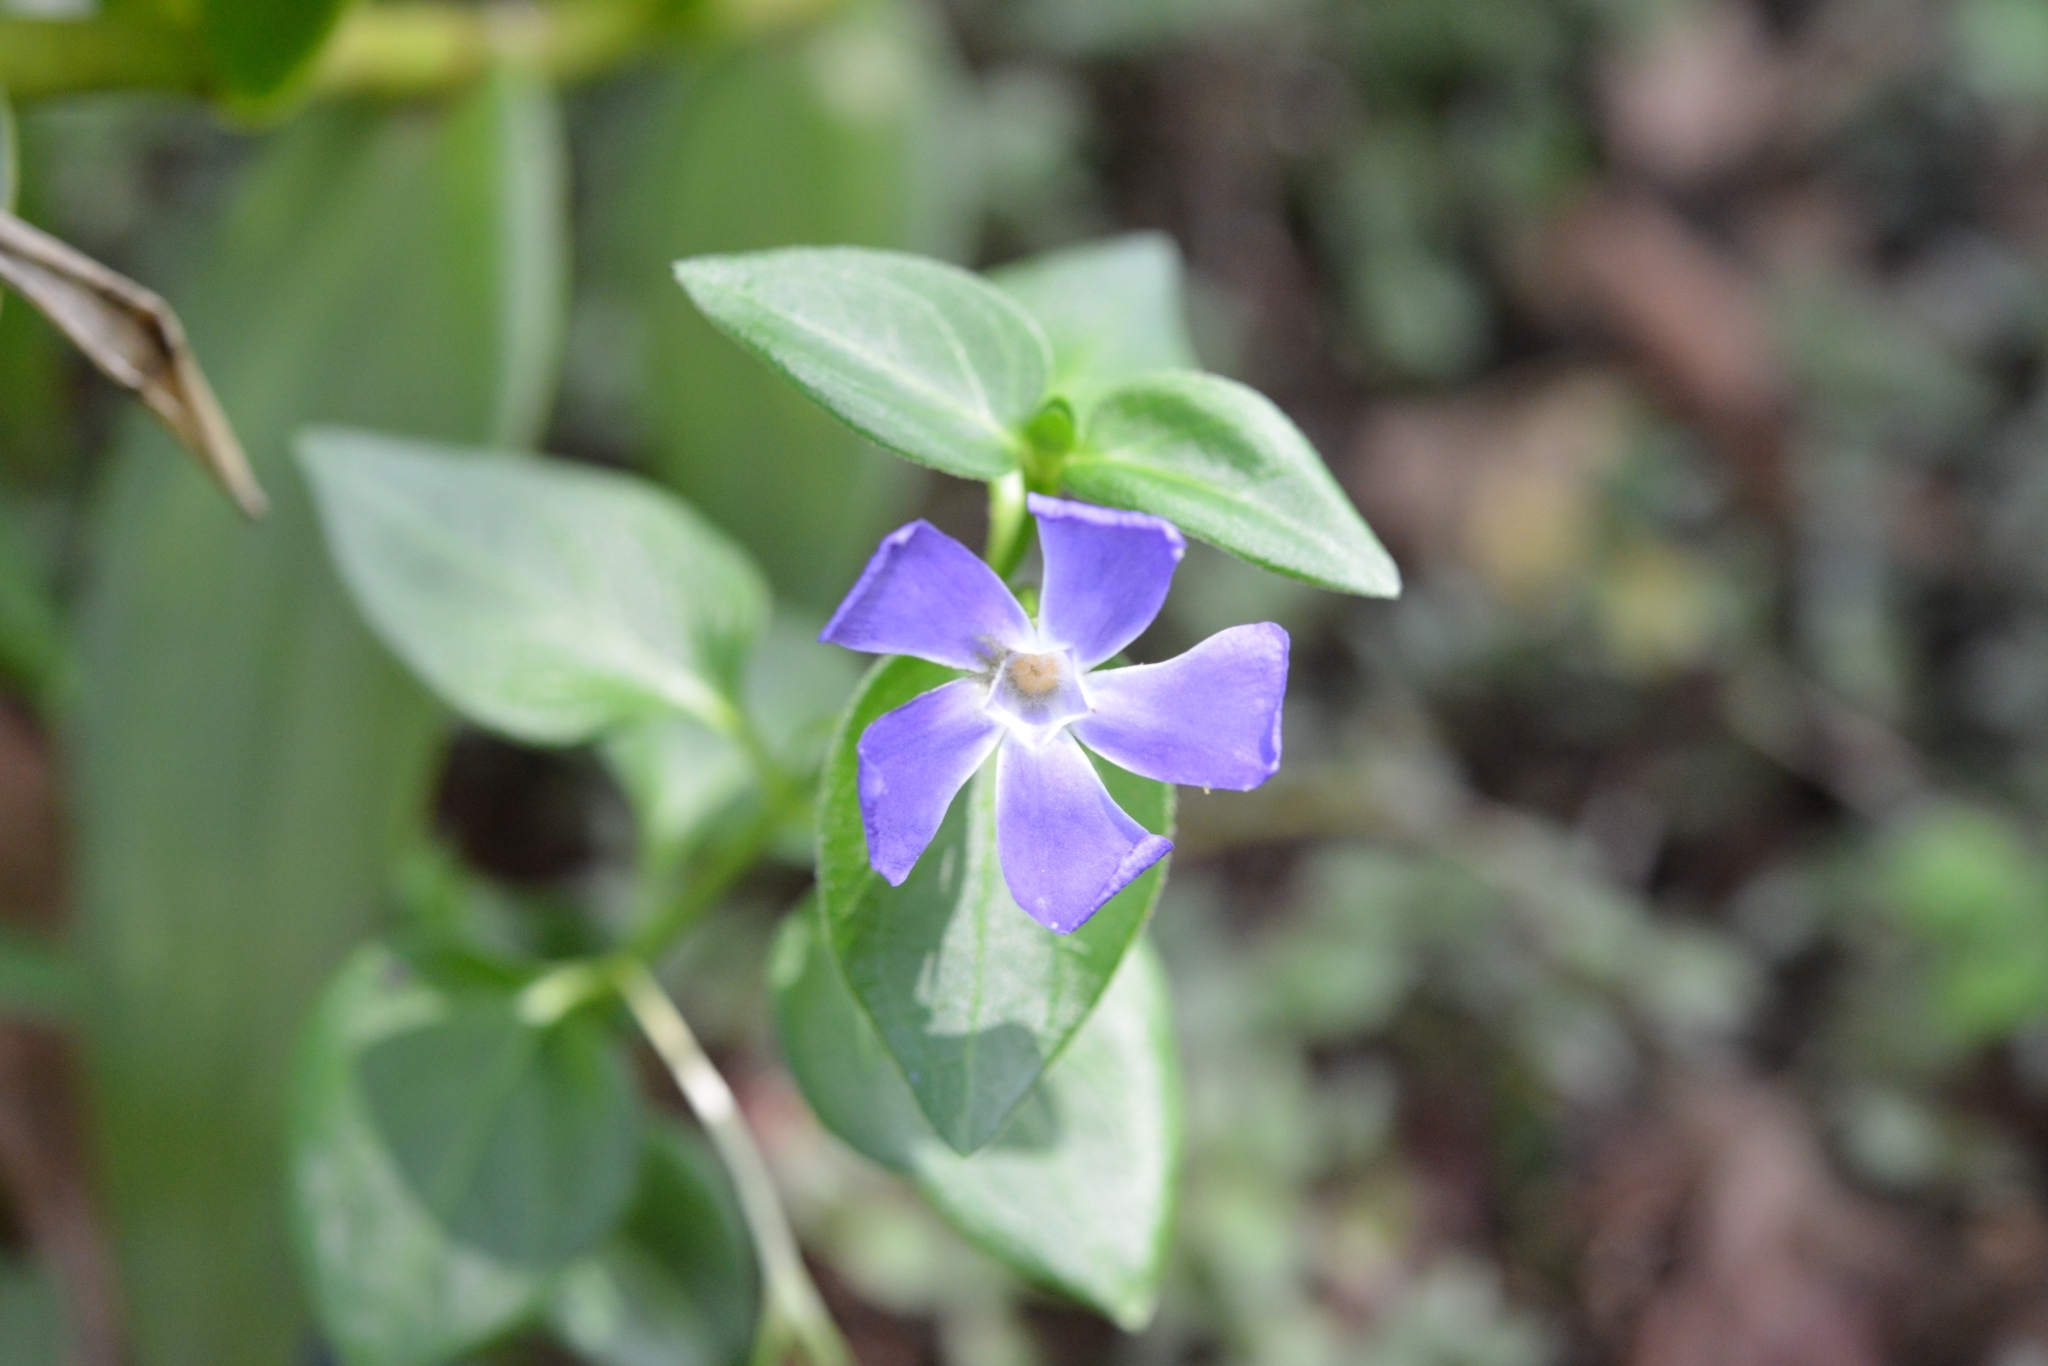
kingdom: Plantae
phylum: Tracheophyta
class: Magnoliopsida
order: Gentianales
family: Apocynaceae
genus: Vinca
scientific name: Vinca major
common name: Greater periwinkle
